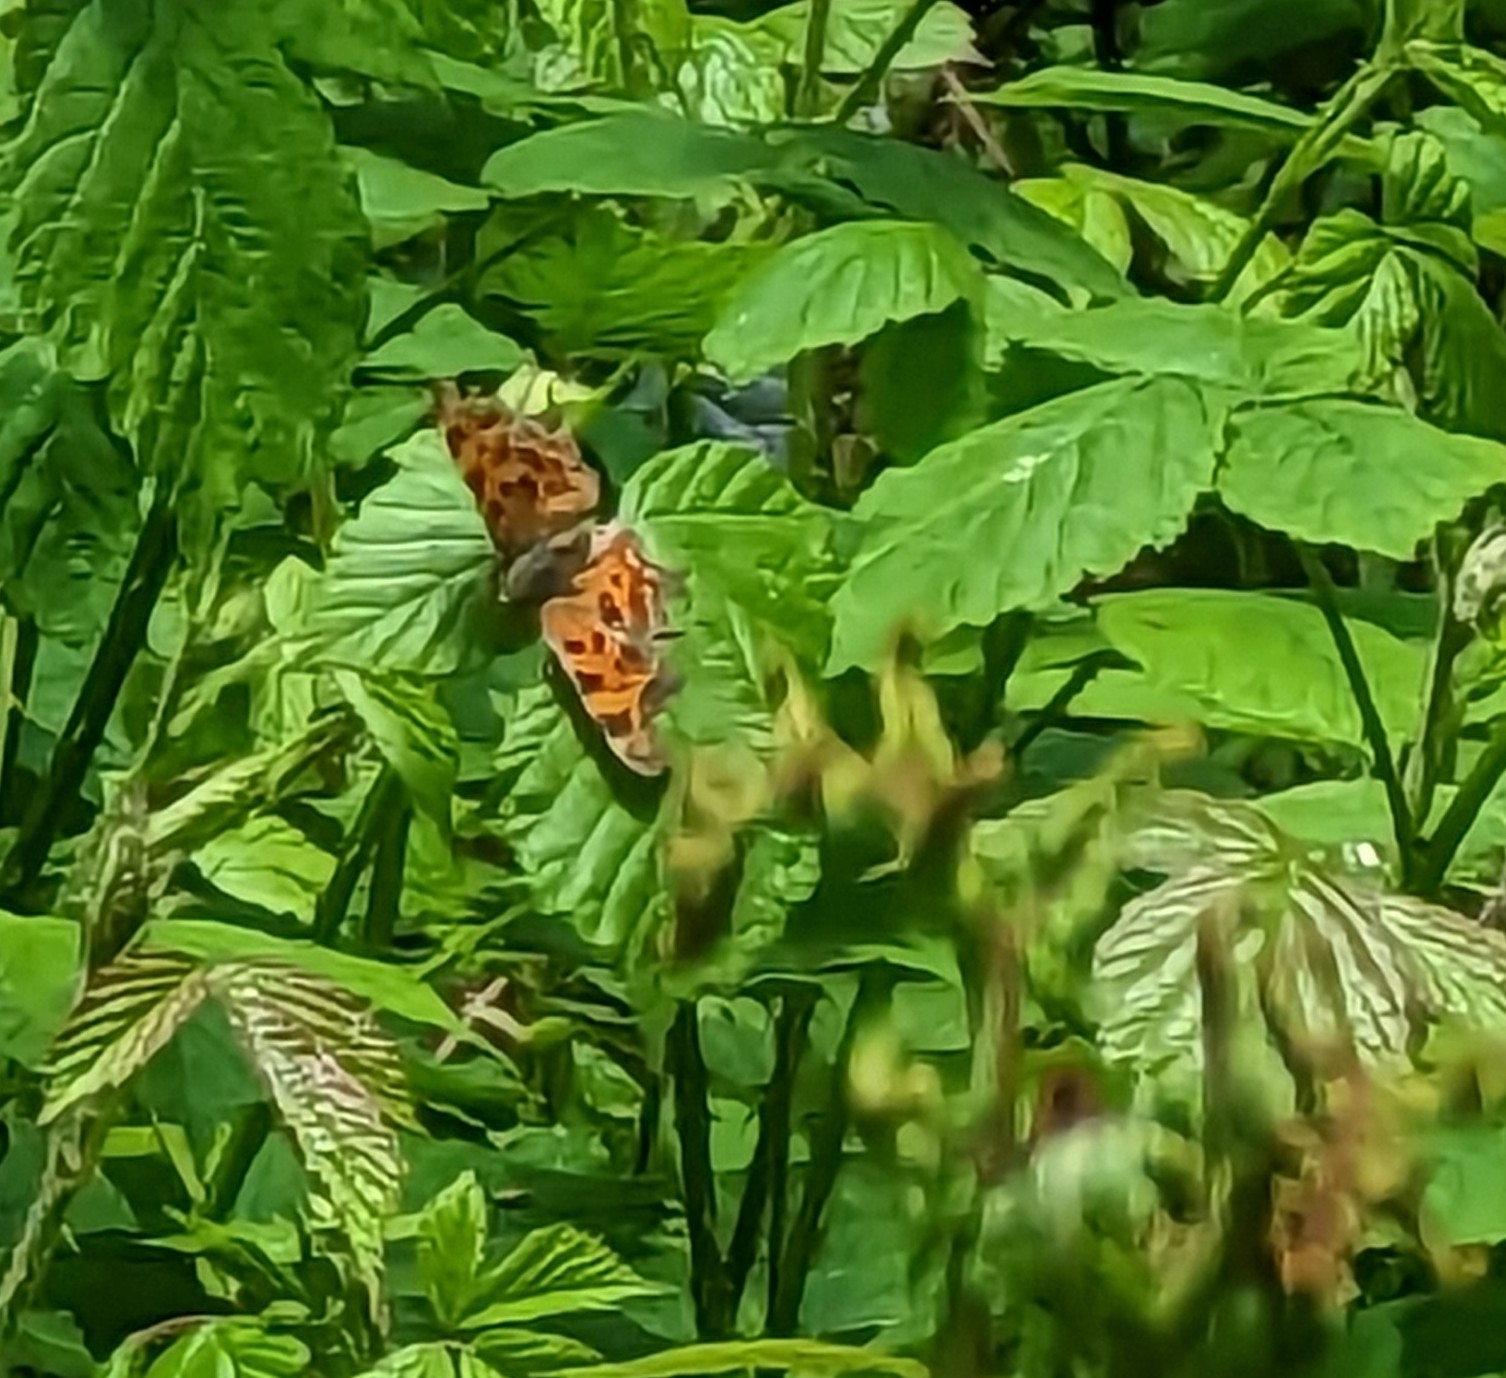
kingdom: Animalia
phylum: Arthropoda
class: Insecta
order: Lepidoptera
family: Nymphalidae
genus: Polygonia
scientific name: Polygonia c-album
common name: Comma
